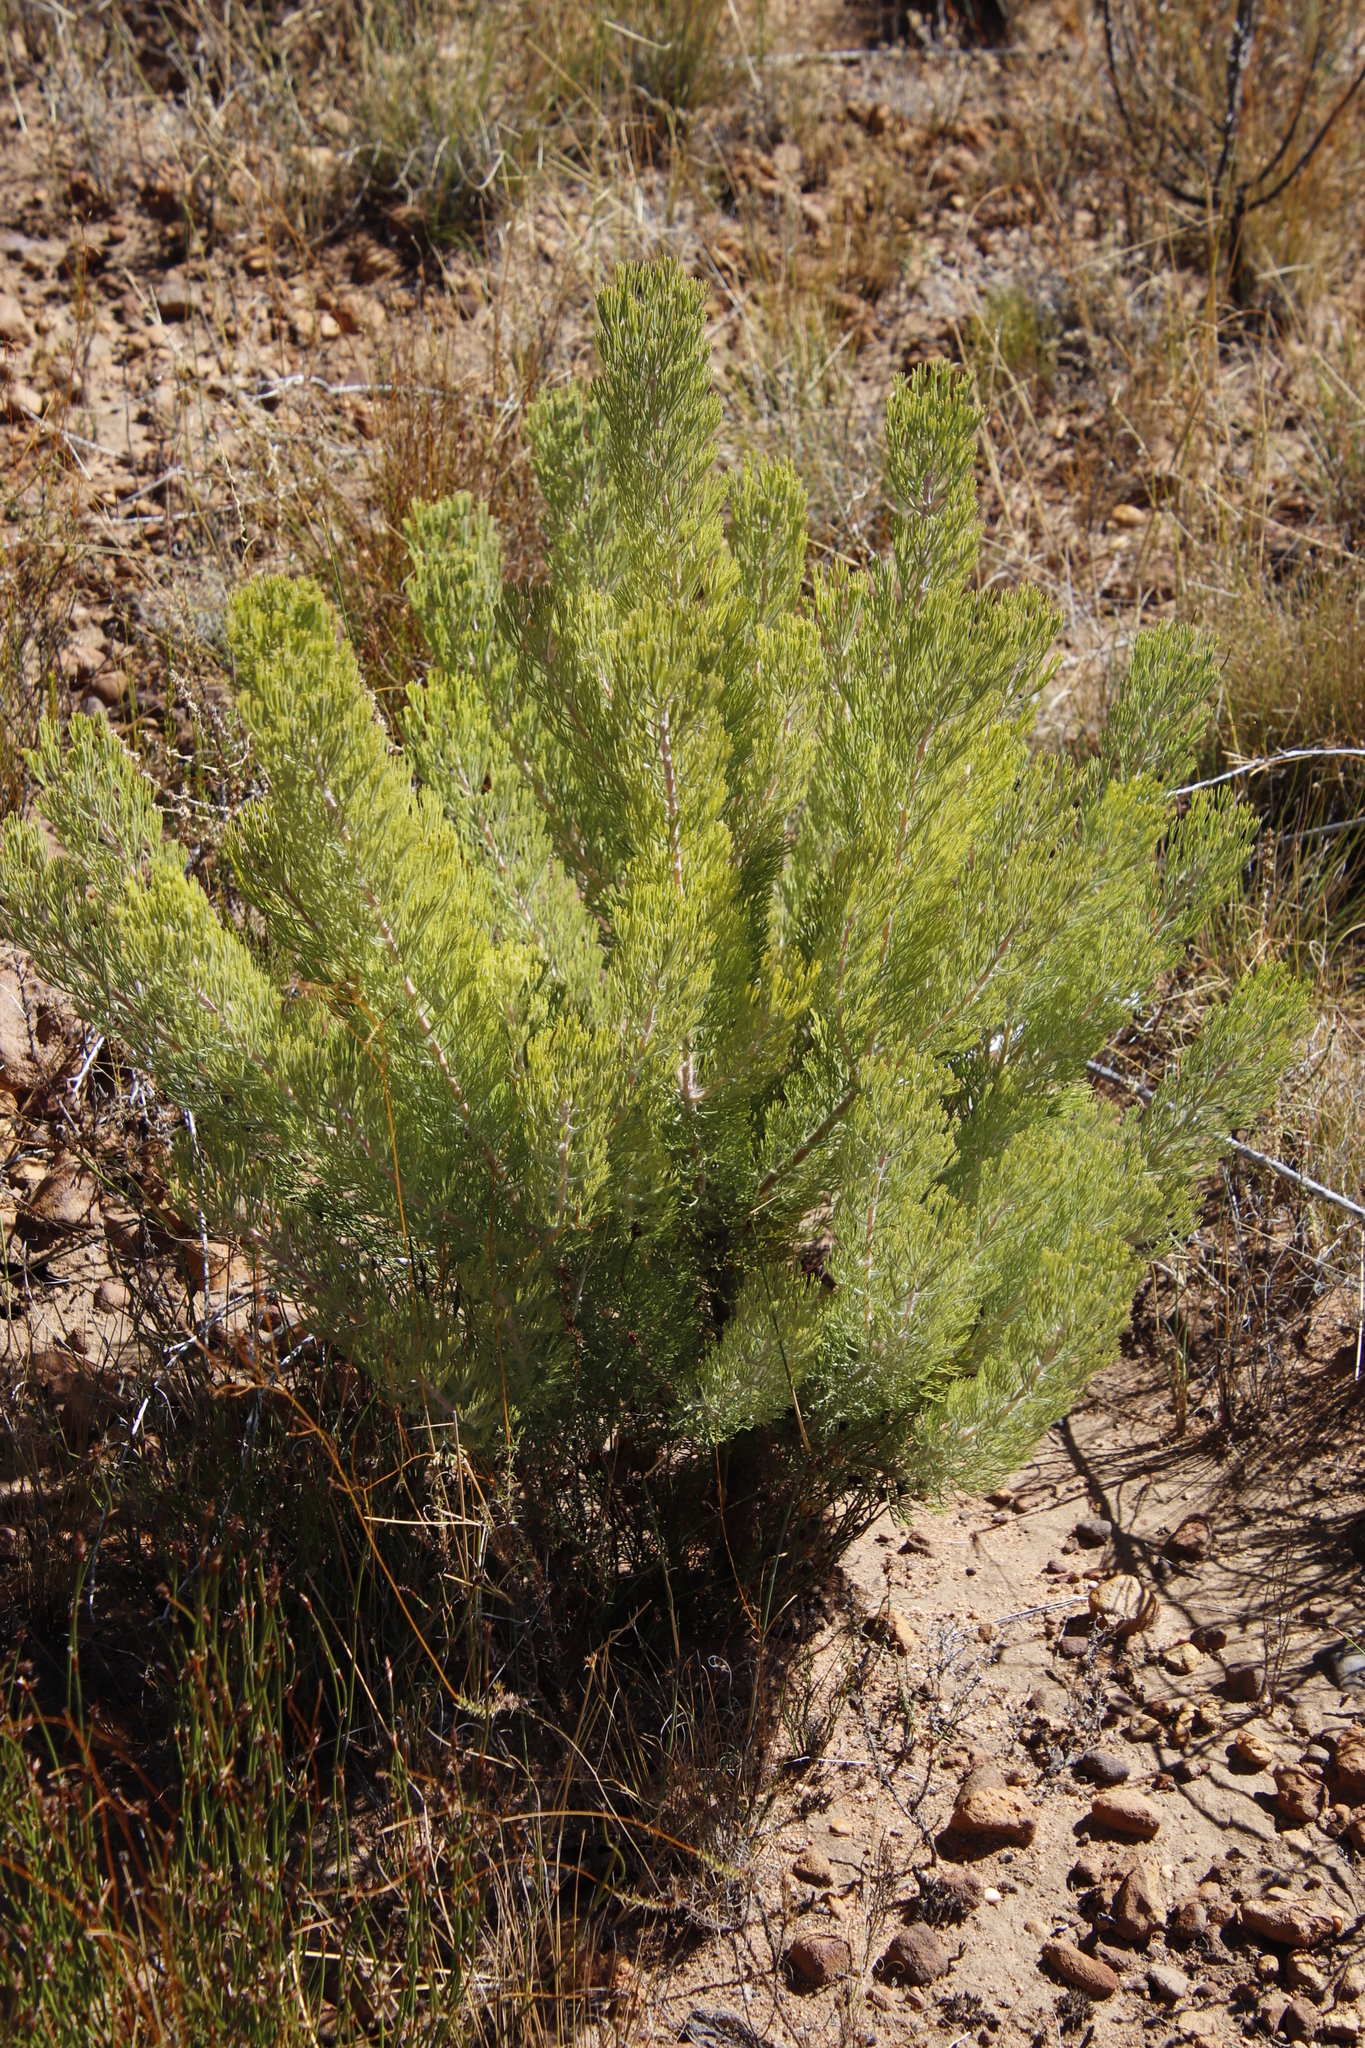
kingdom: Plantae
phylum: Tracheophyta
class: Magnoliopsida
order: Proteales
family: Proteaceae
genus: Paranomus
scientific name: Paranomus bracteolaris
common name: Bokkeveld tree sceptre
